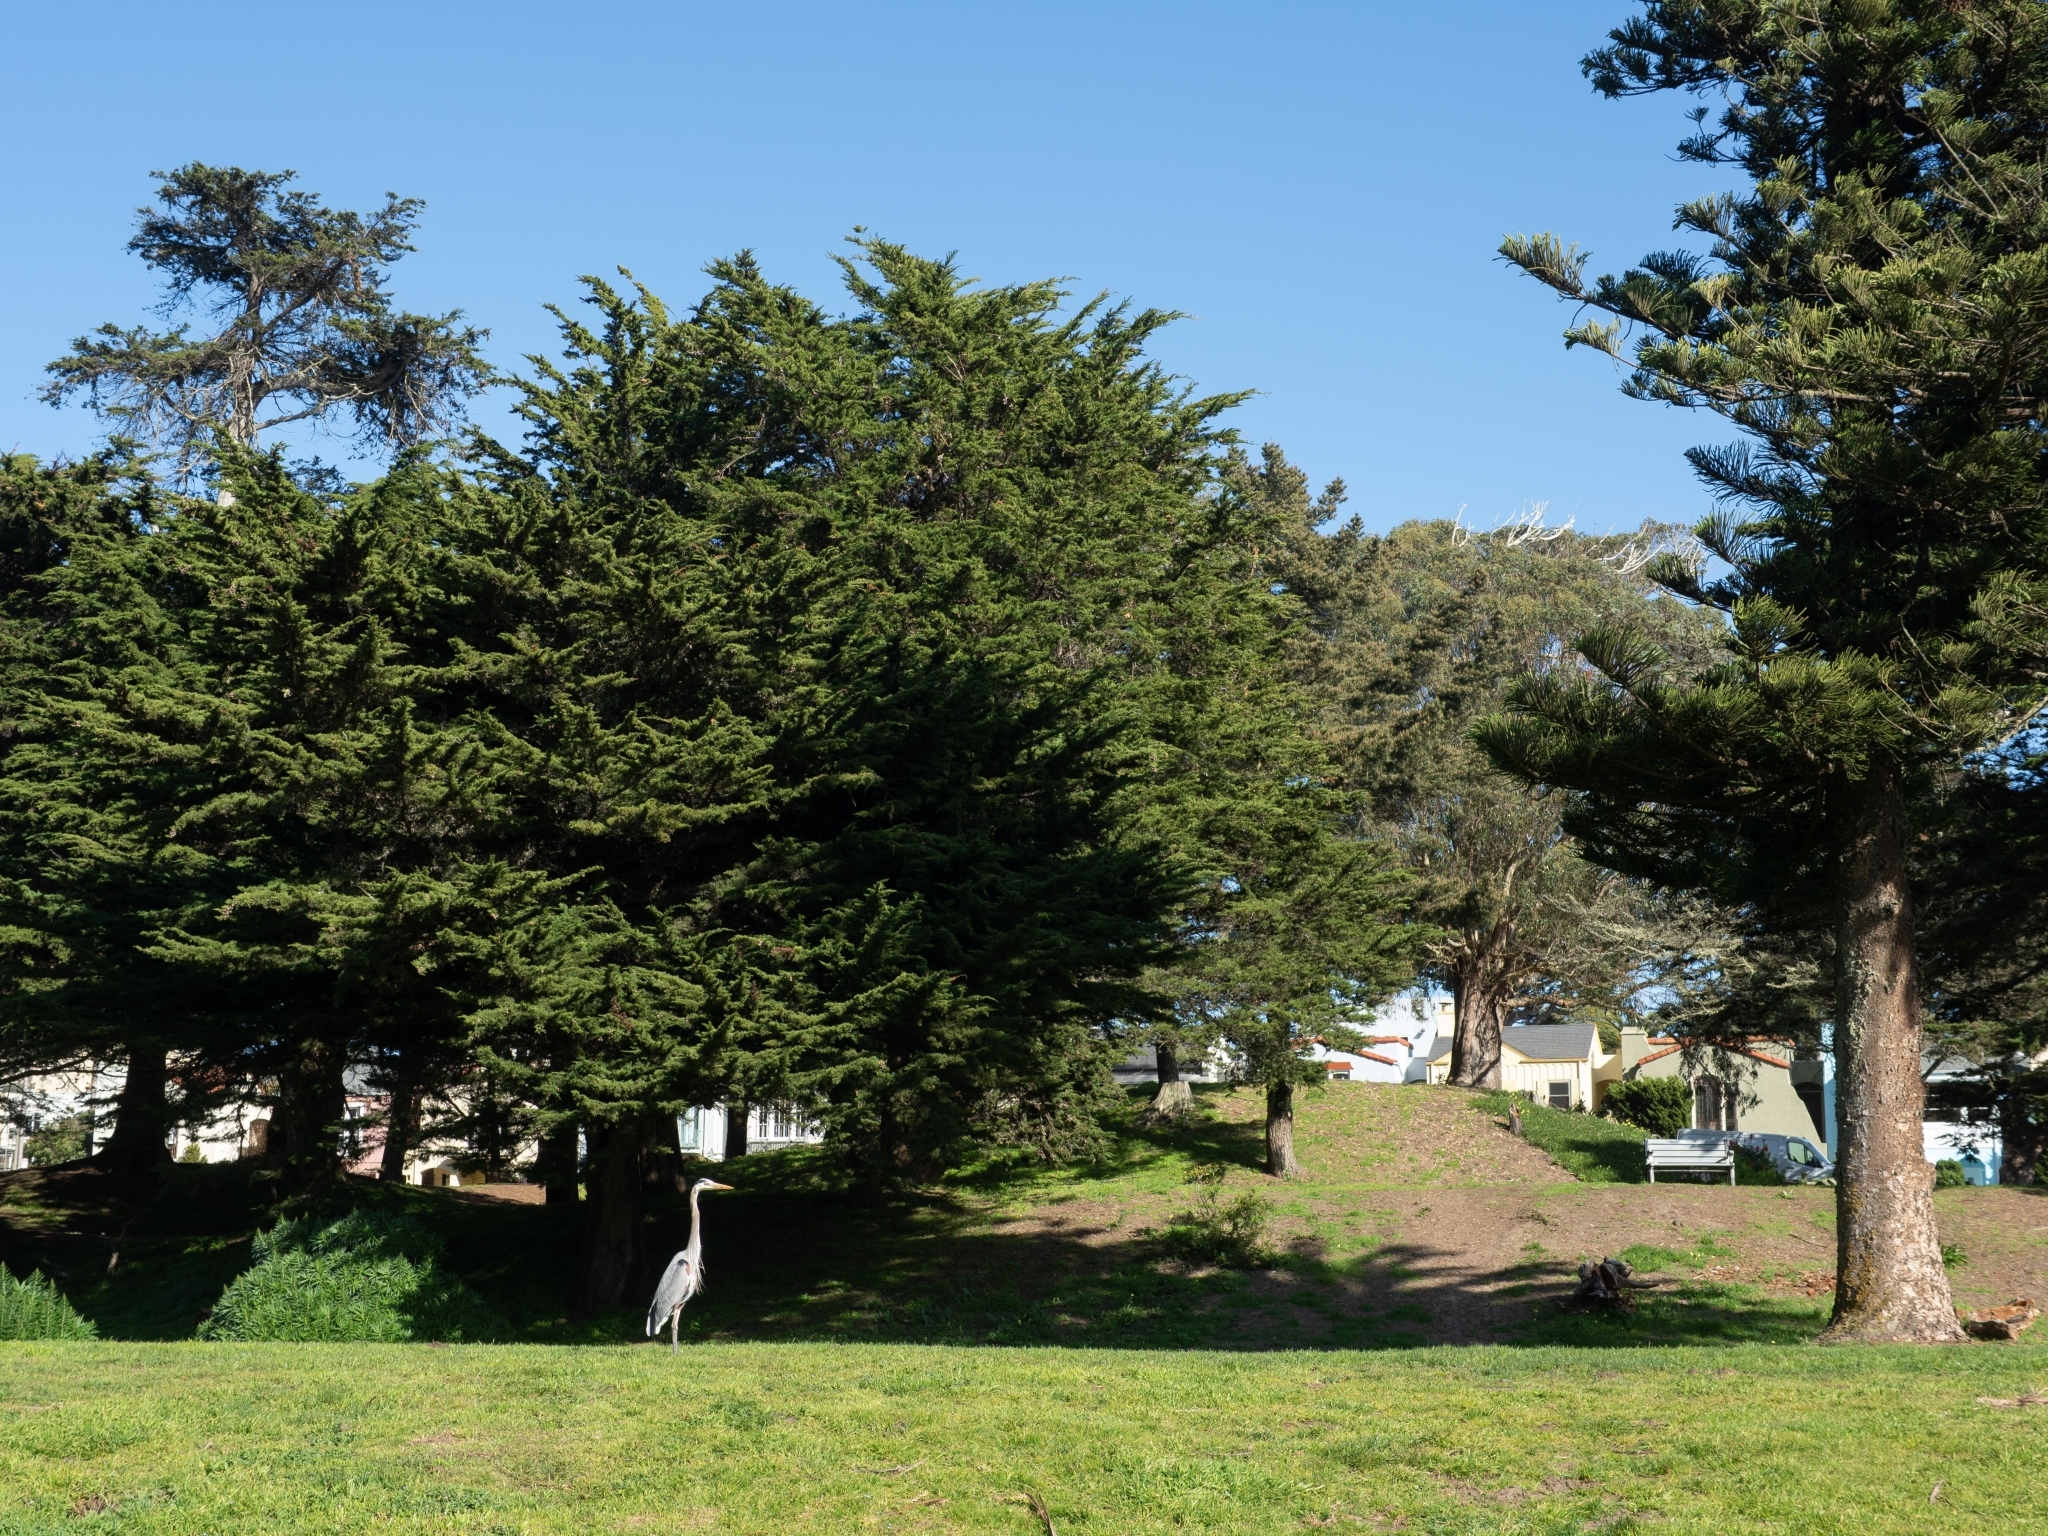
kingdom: Animalia
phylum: Chordata
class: Aves
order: Pelecaniformes
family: Ardeidae
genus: Ardea
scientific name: Ardea herodias
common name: Great blue heron
